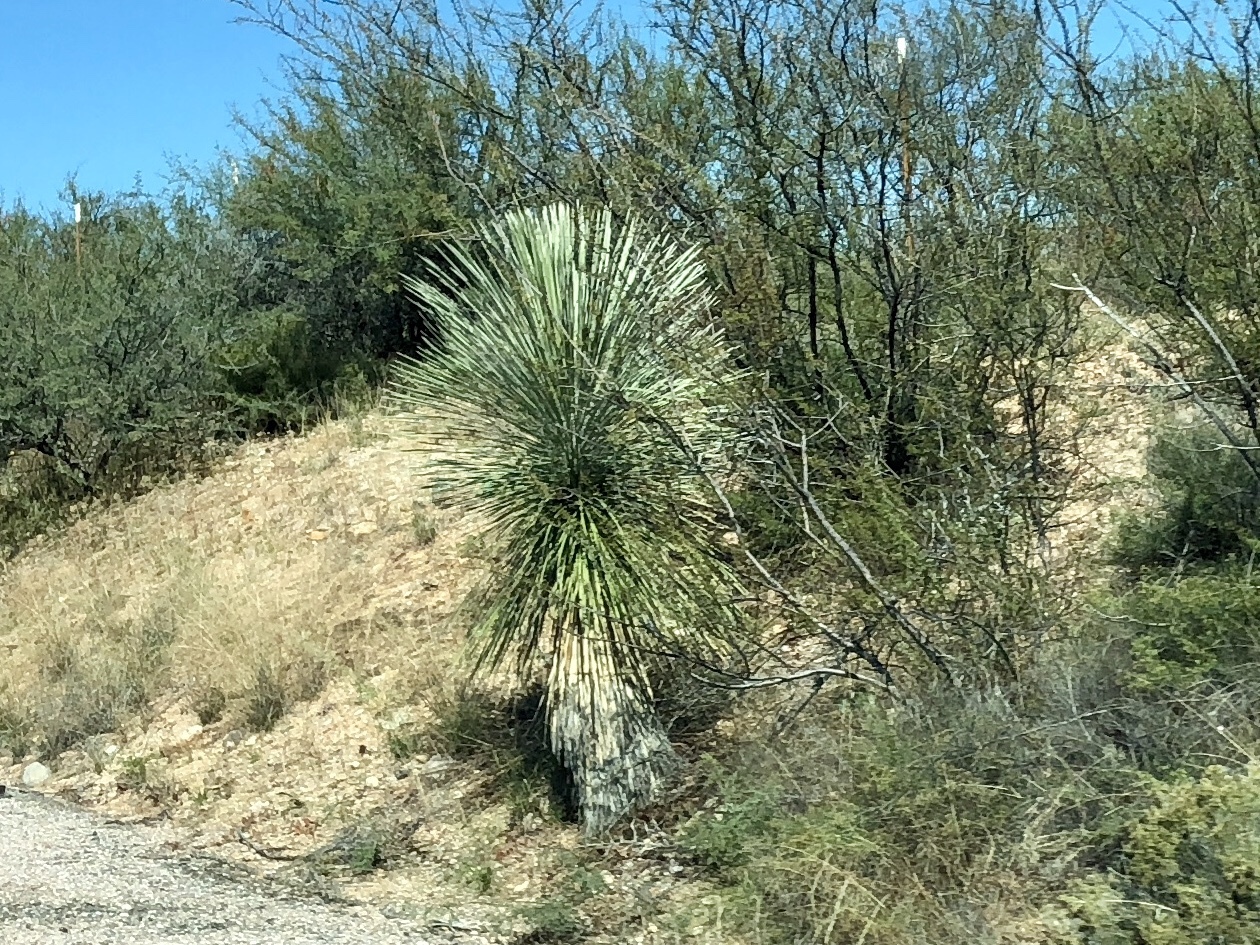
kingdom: Plantae
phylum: Tracheophyta
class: Liliopsida
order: Asparagales
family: Asparagaceae
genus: Yucca
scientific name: Yucca elata
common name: Palmella
